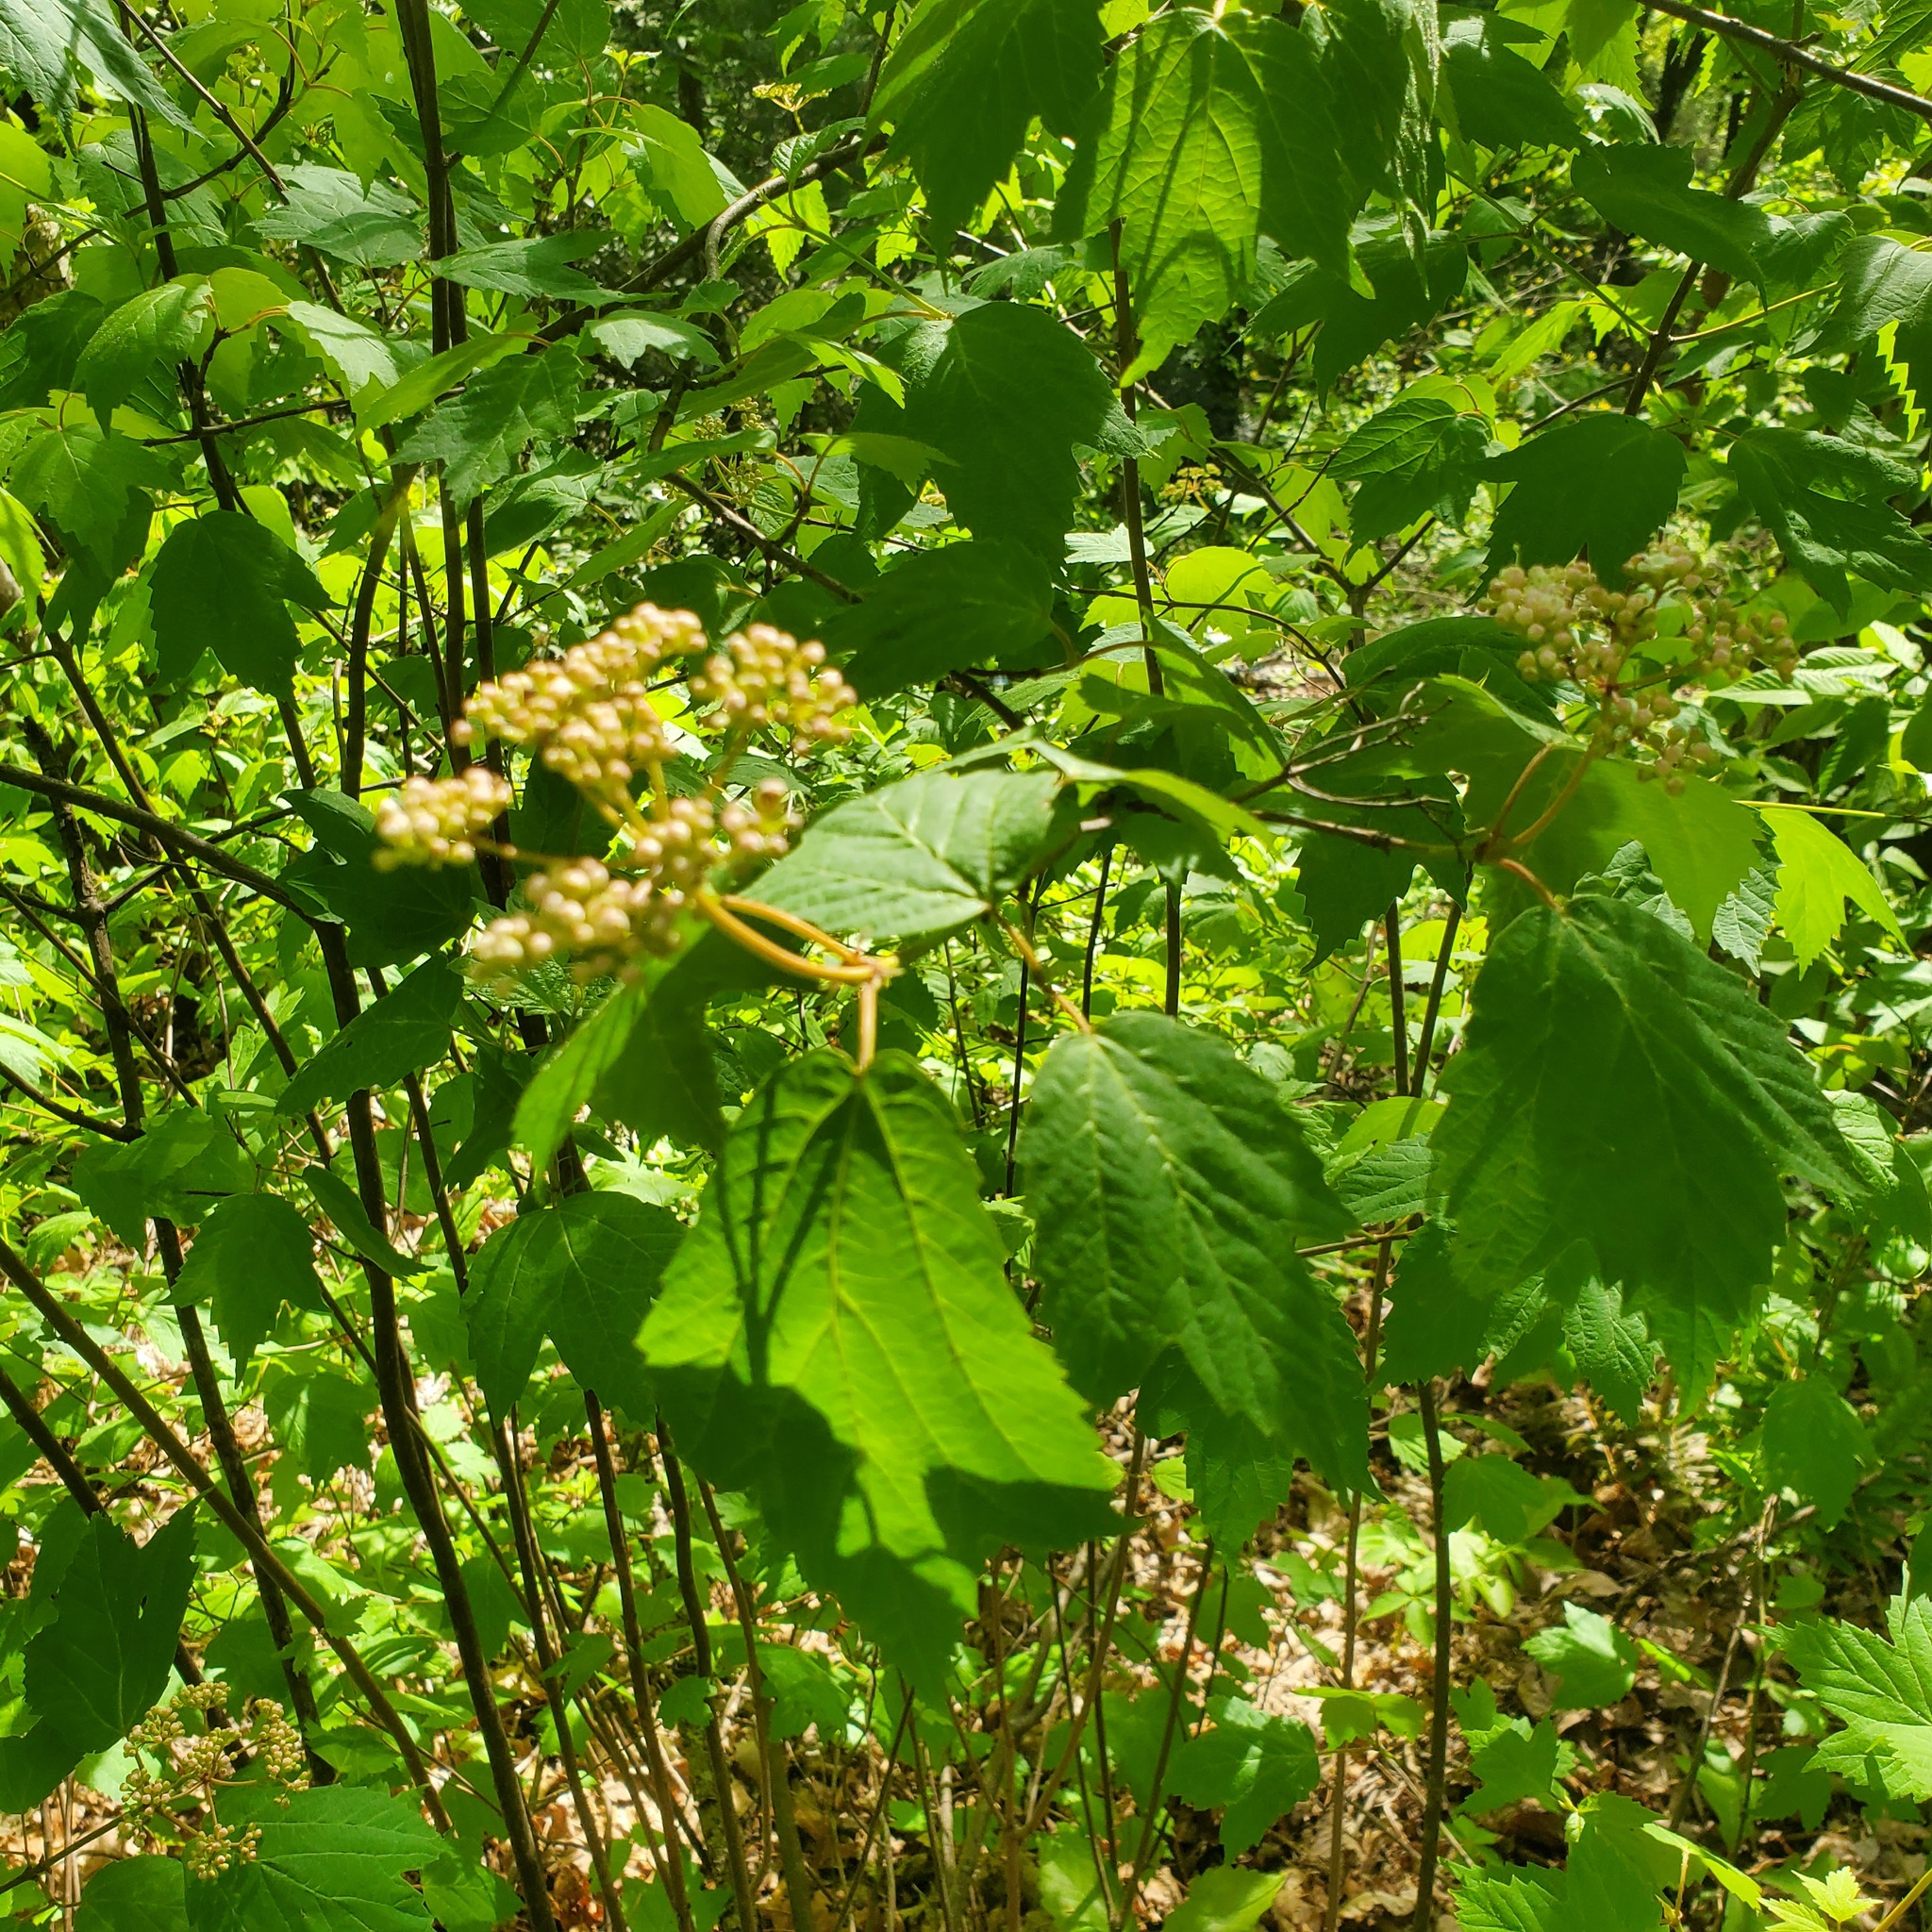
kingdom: Plantae
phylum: Tracheophyta
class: Magnoliopsida
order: Dipsacales
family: Viburnaceae
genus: Viburnum
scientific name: Viburnum acerifolium
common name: Dockmackie
